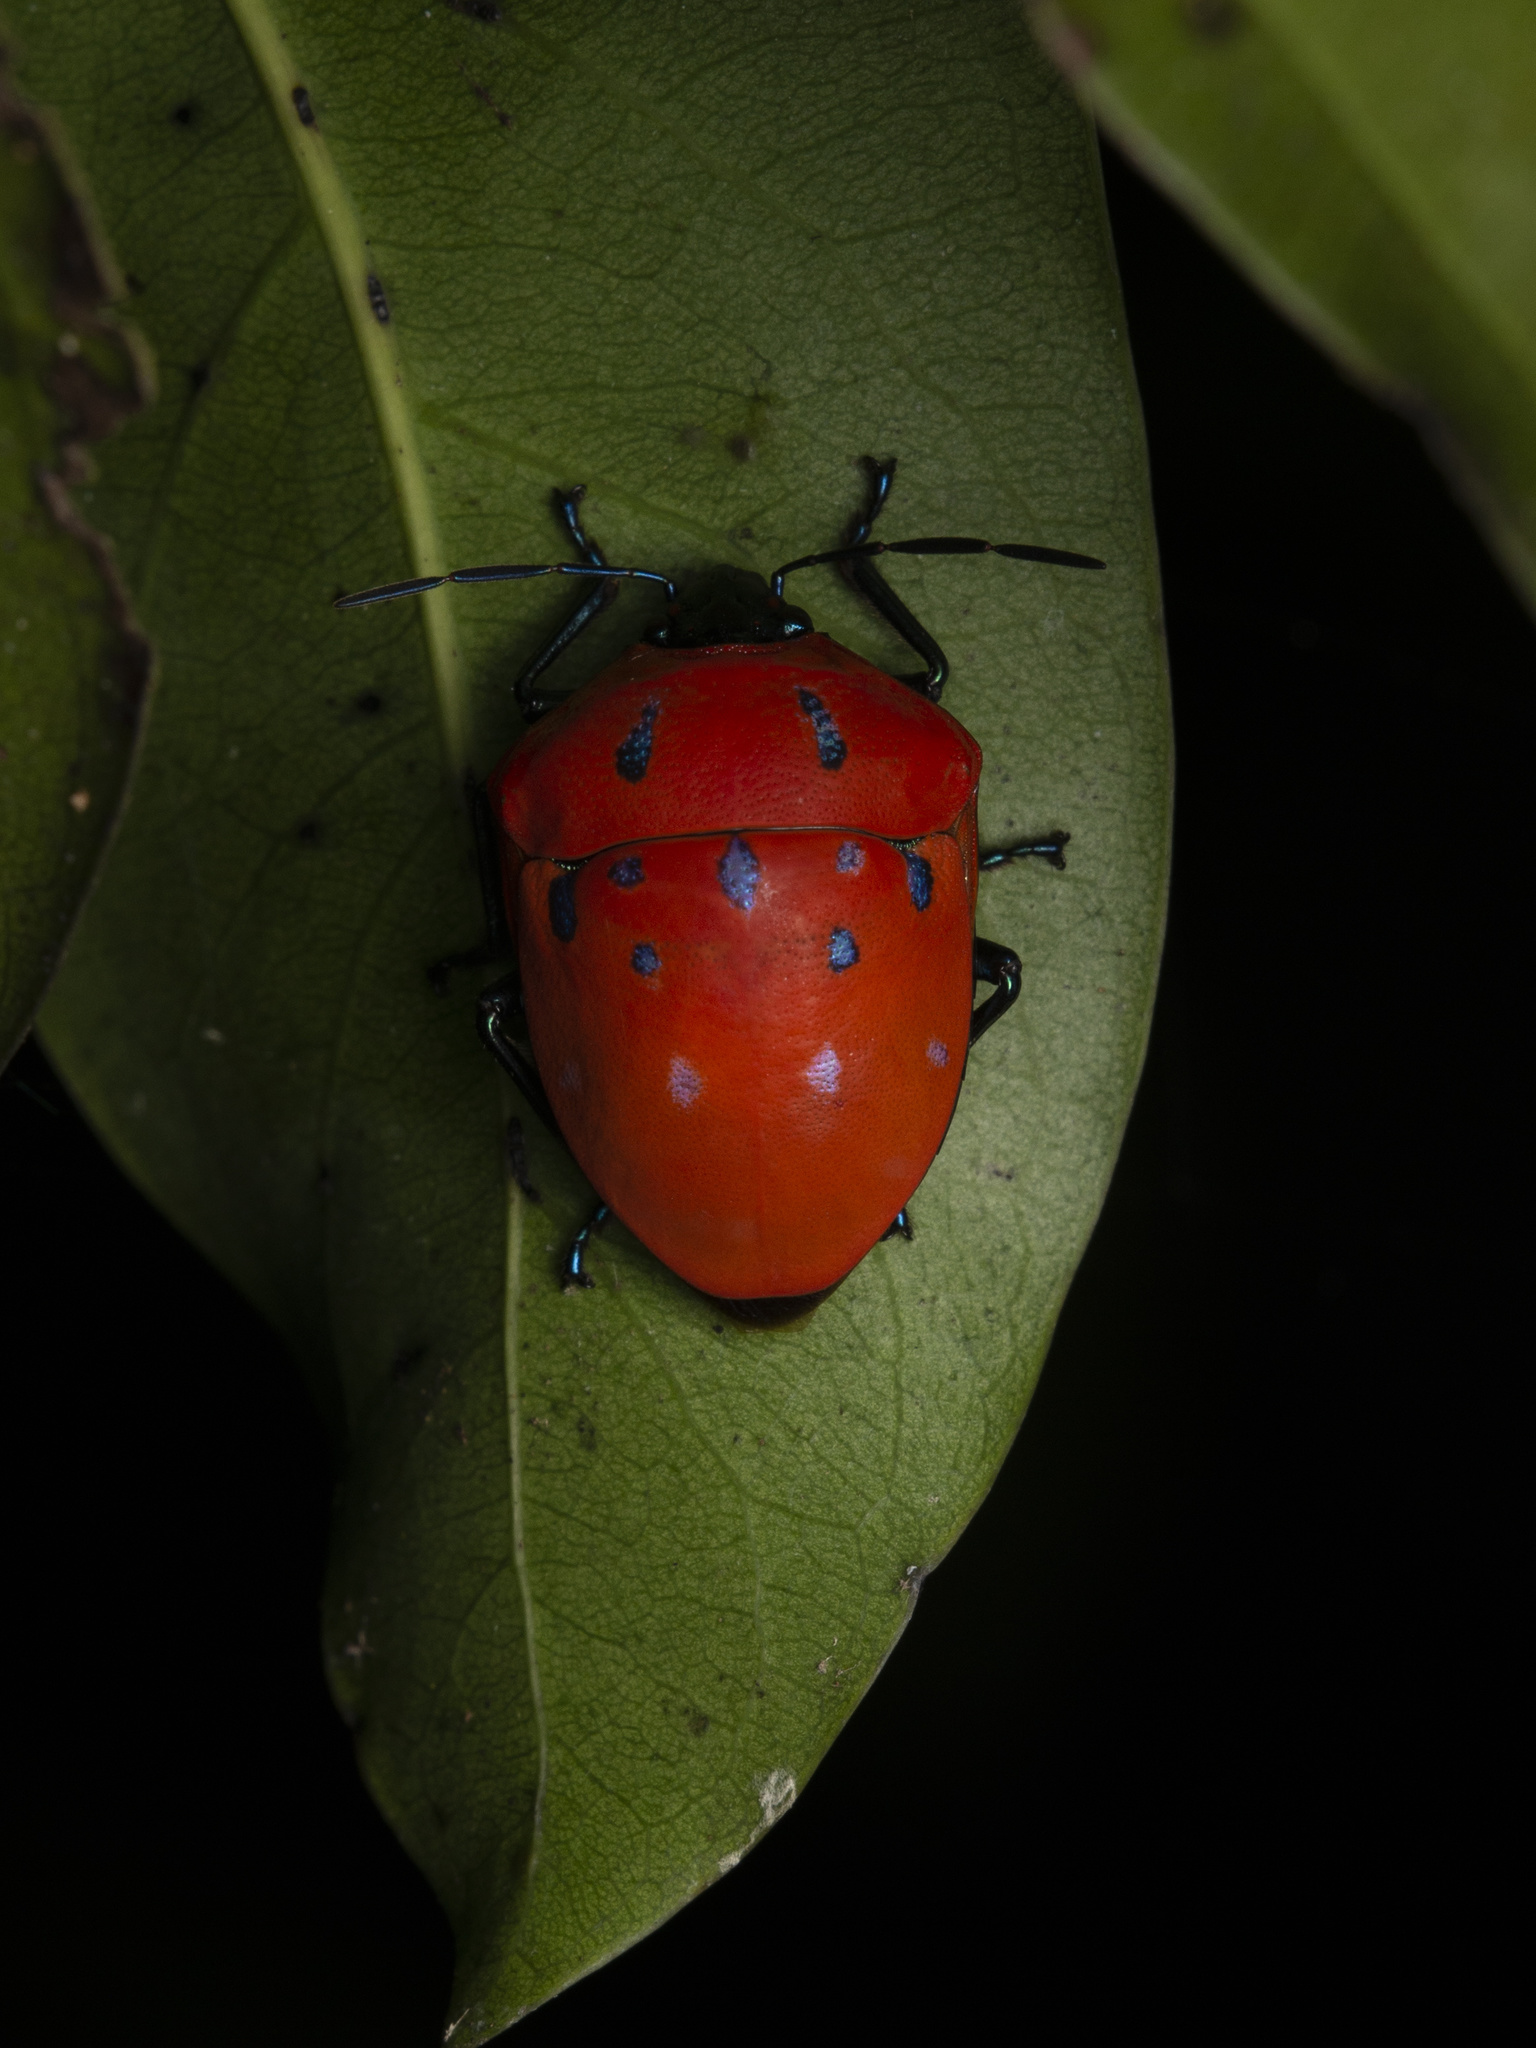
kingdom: Animalia
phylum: Arthropoda
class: Insecta
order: Hemiptera
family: Scutelleridae
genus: Poecilocoris
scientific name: Poecilocoris druraei
